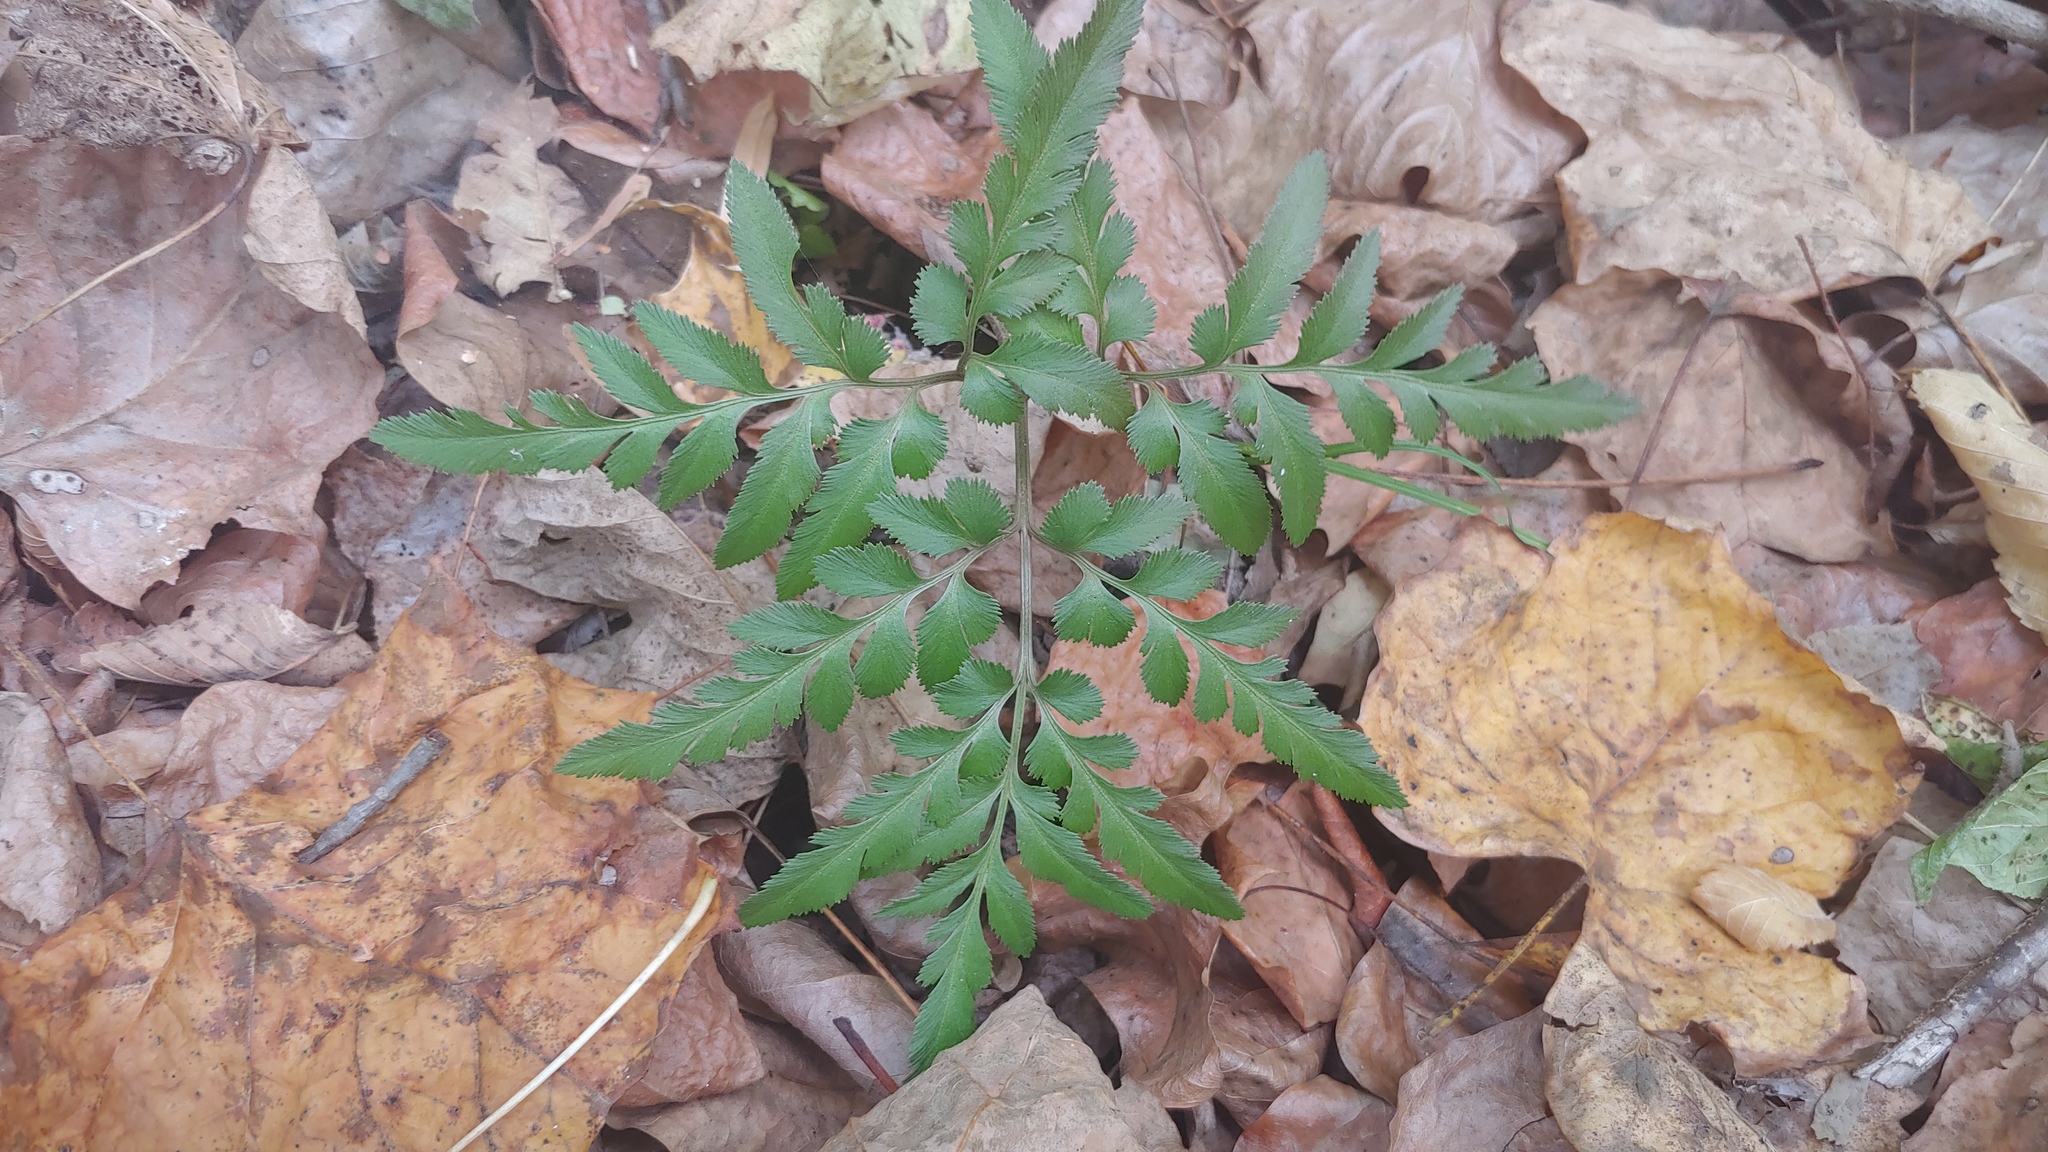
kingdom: Plantae
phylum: Tracheophyta
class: Polypodiopsida
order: Ophioglossales
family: Ophioglossaceae
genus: Sceptridium
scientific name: Sceptridium dissectum
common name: Cut-leaved grapefern
